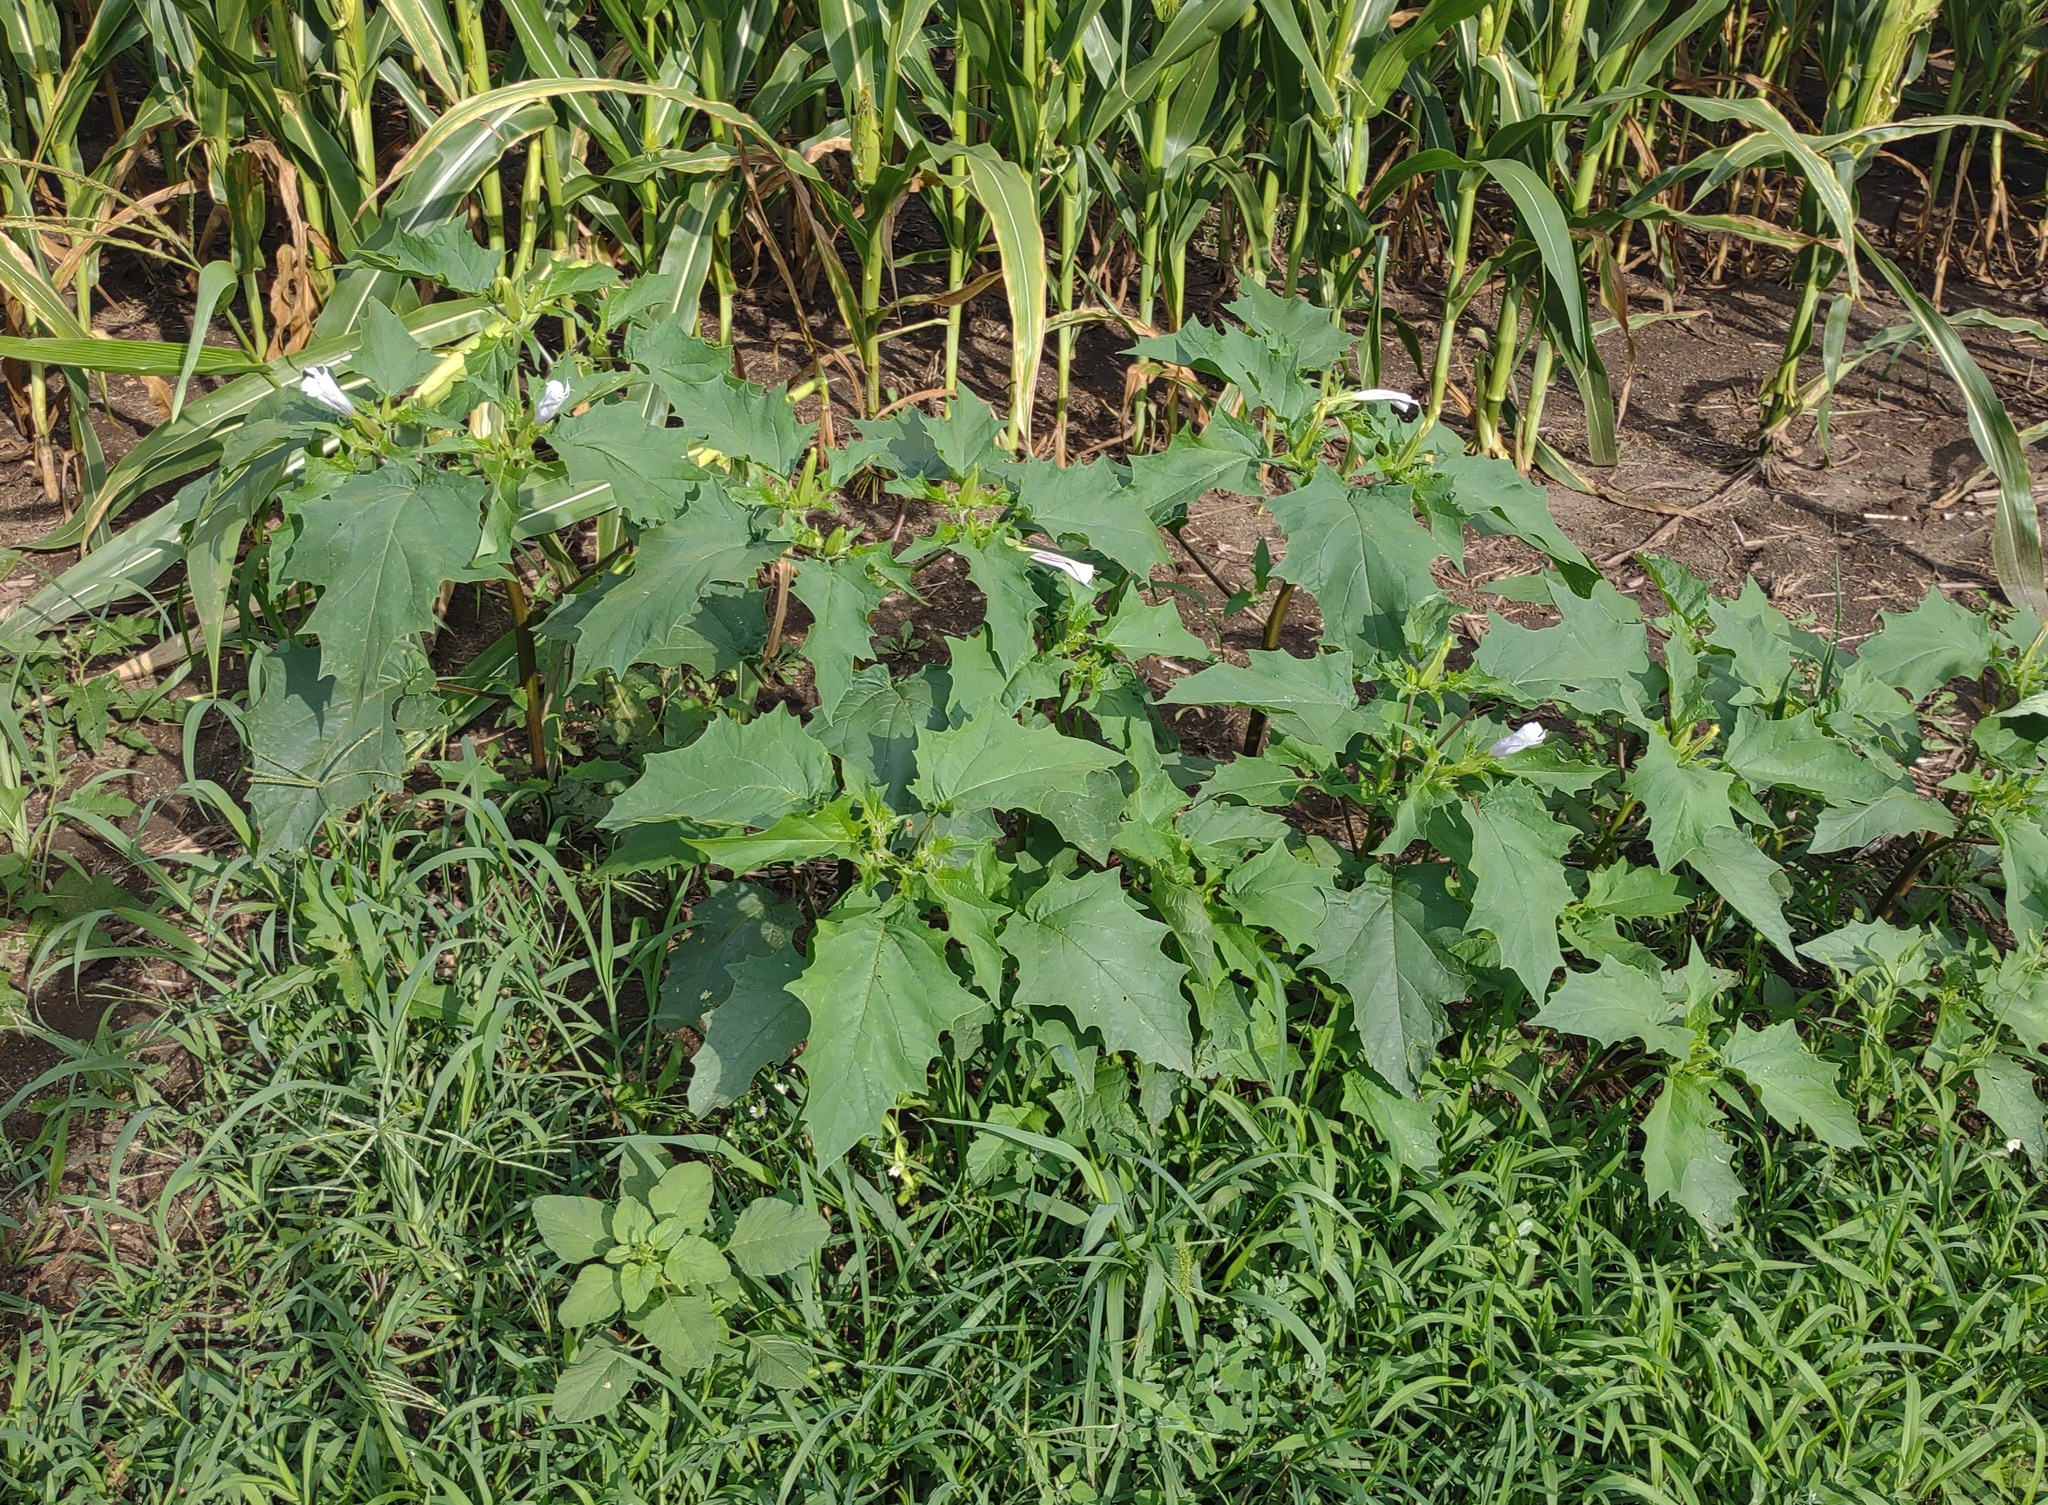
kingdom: Plantae
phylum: Tracheophyta
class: Magnoliopsida
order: Solanales
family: Solanaceae
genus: Datura
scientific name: Datura stramonium
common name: Thorn-apple
